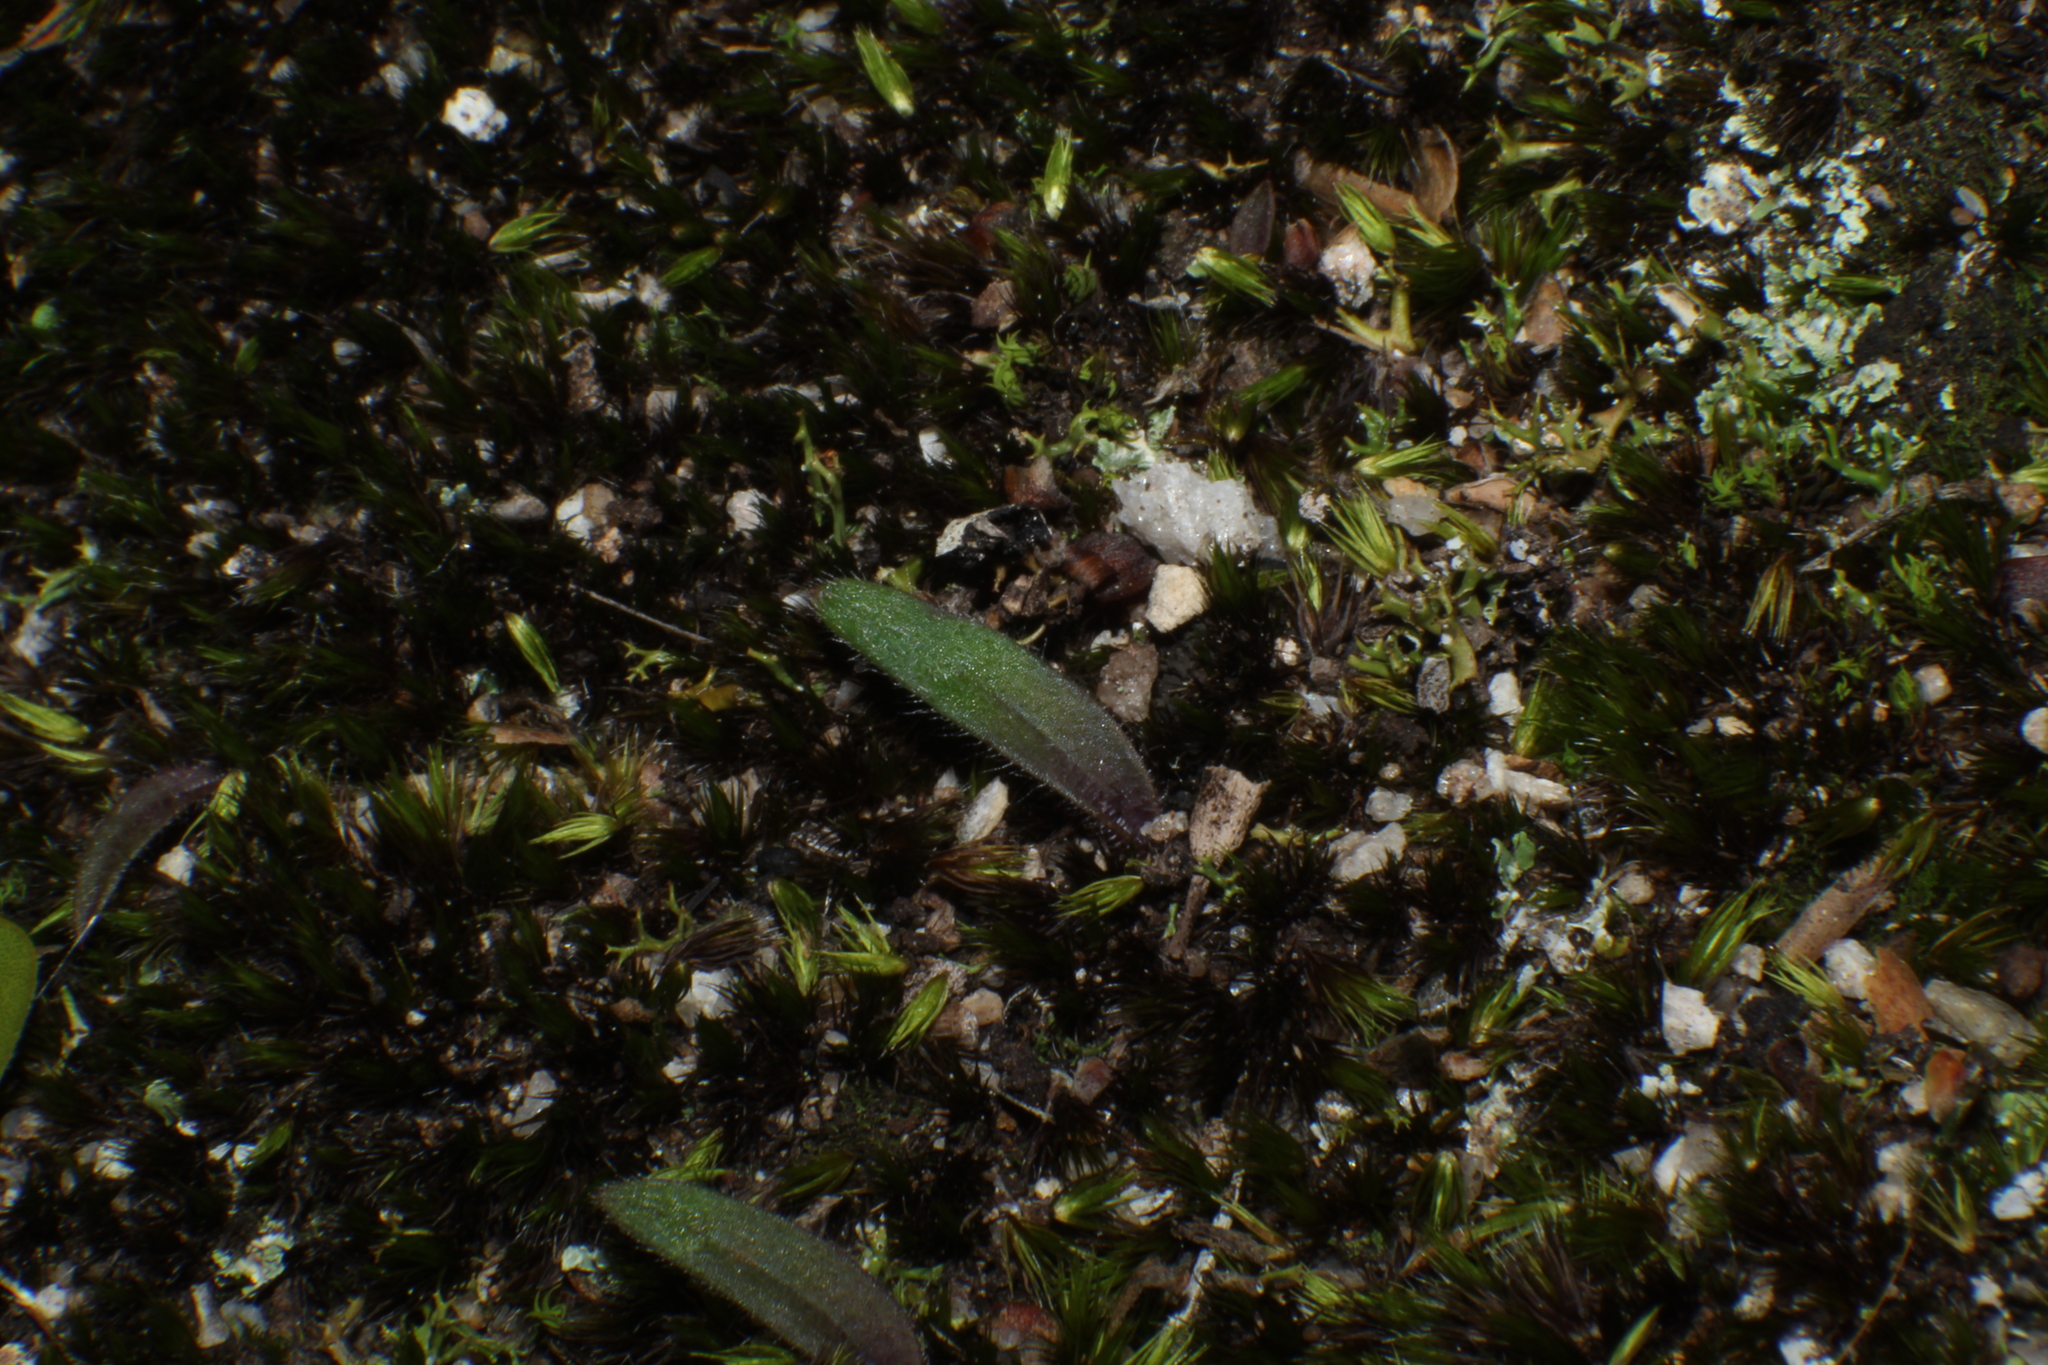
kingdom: Plantae
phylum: Tracheophyta
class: Liliopsida
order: Asparagales
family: Orchidaceae
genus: Caladenia
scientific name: Caladenia flava
